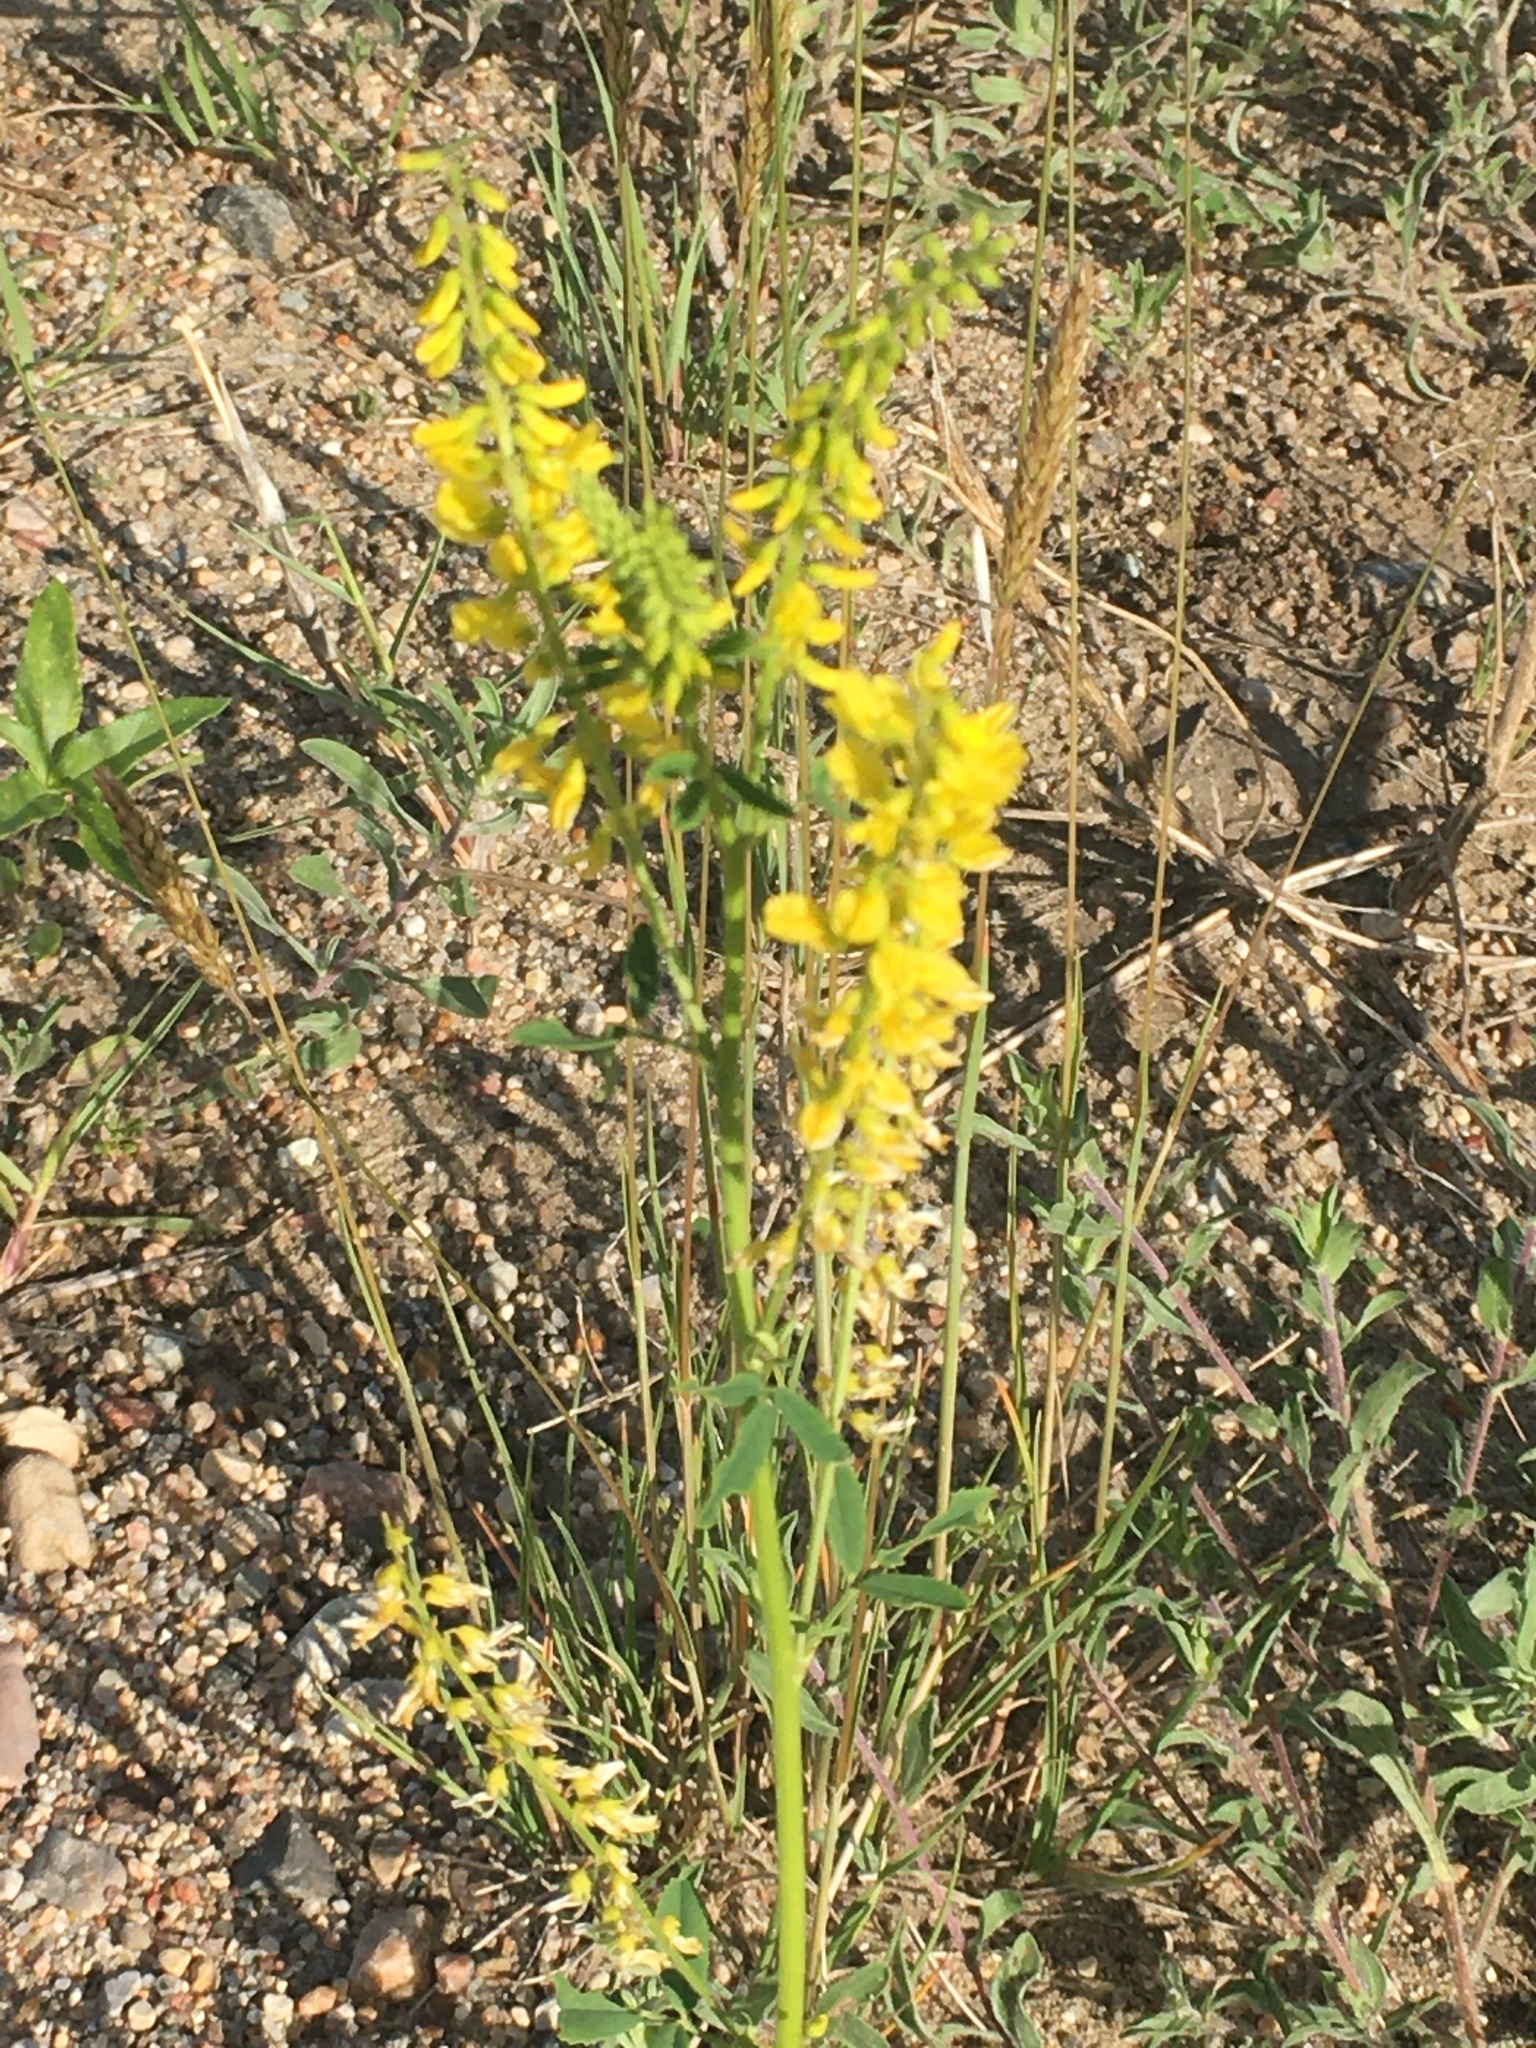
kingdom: Plantae
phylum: Tracheophyta
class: Magnoliopsida
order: Fabales
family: Fabaceae
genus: Melilotus
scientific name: Melilotus officinalis
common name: Sweetclover
